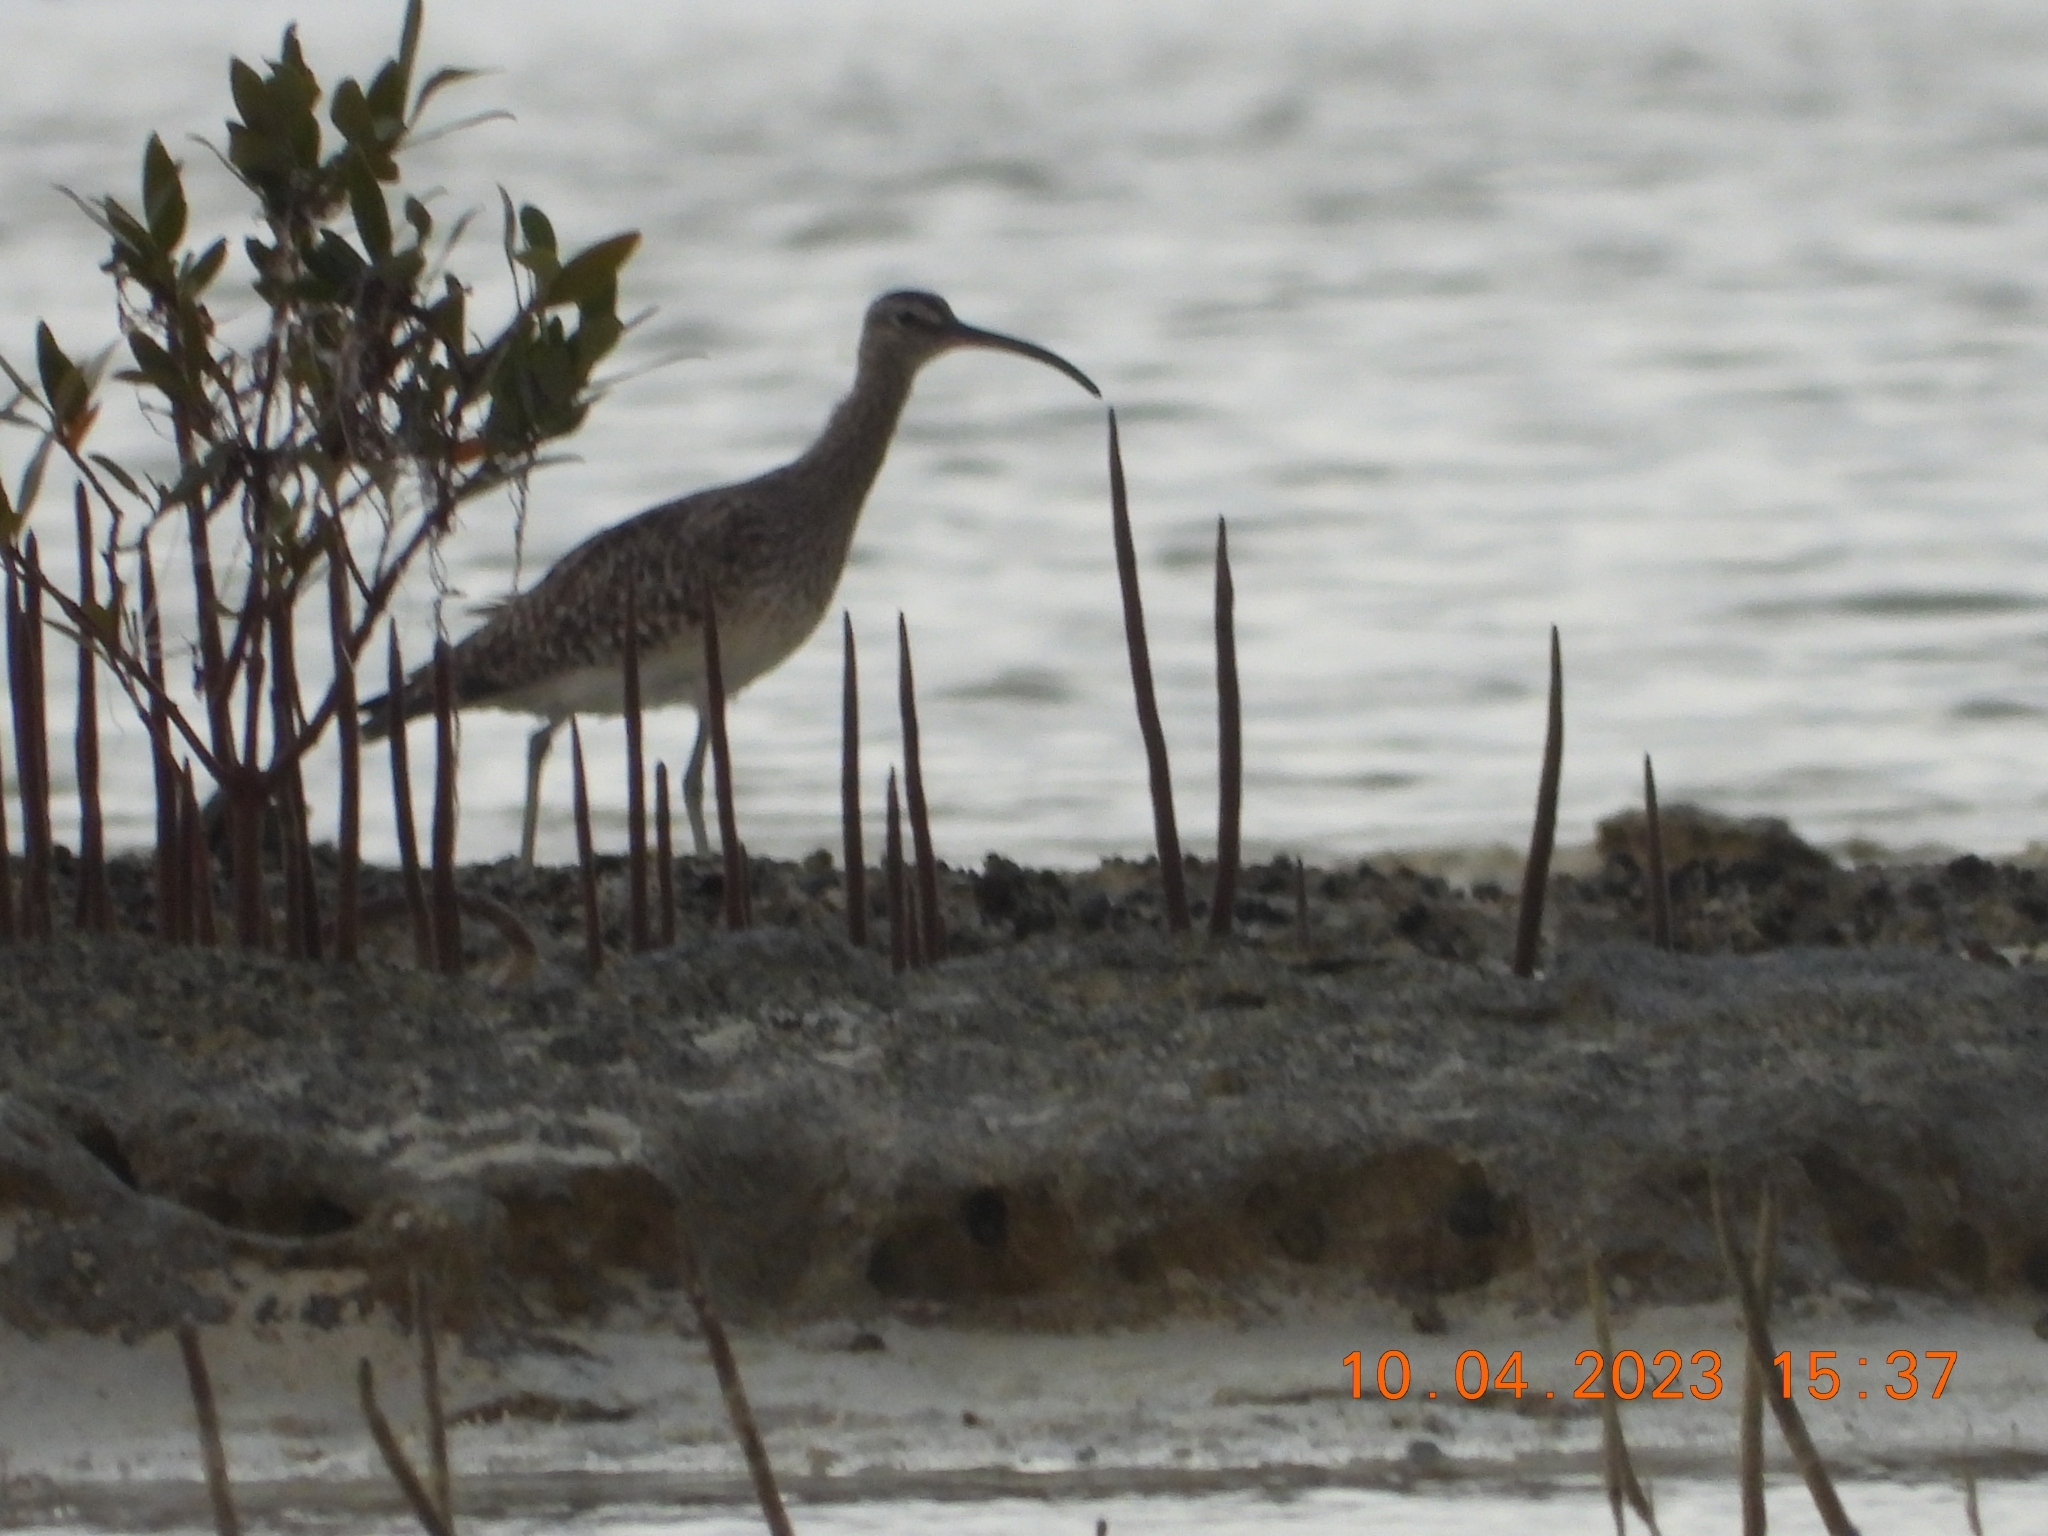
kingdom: Animalia
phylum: Chordata
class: Aves
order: Charadriiformes
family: Scolopacidae
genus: Numenius
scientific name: Numenius phaeopus
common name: Whimbrel
